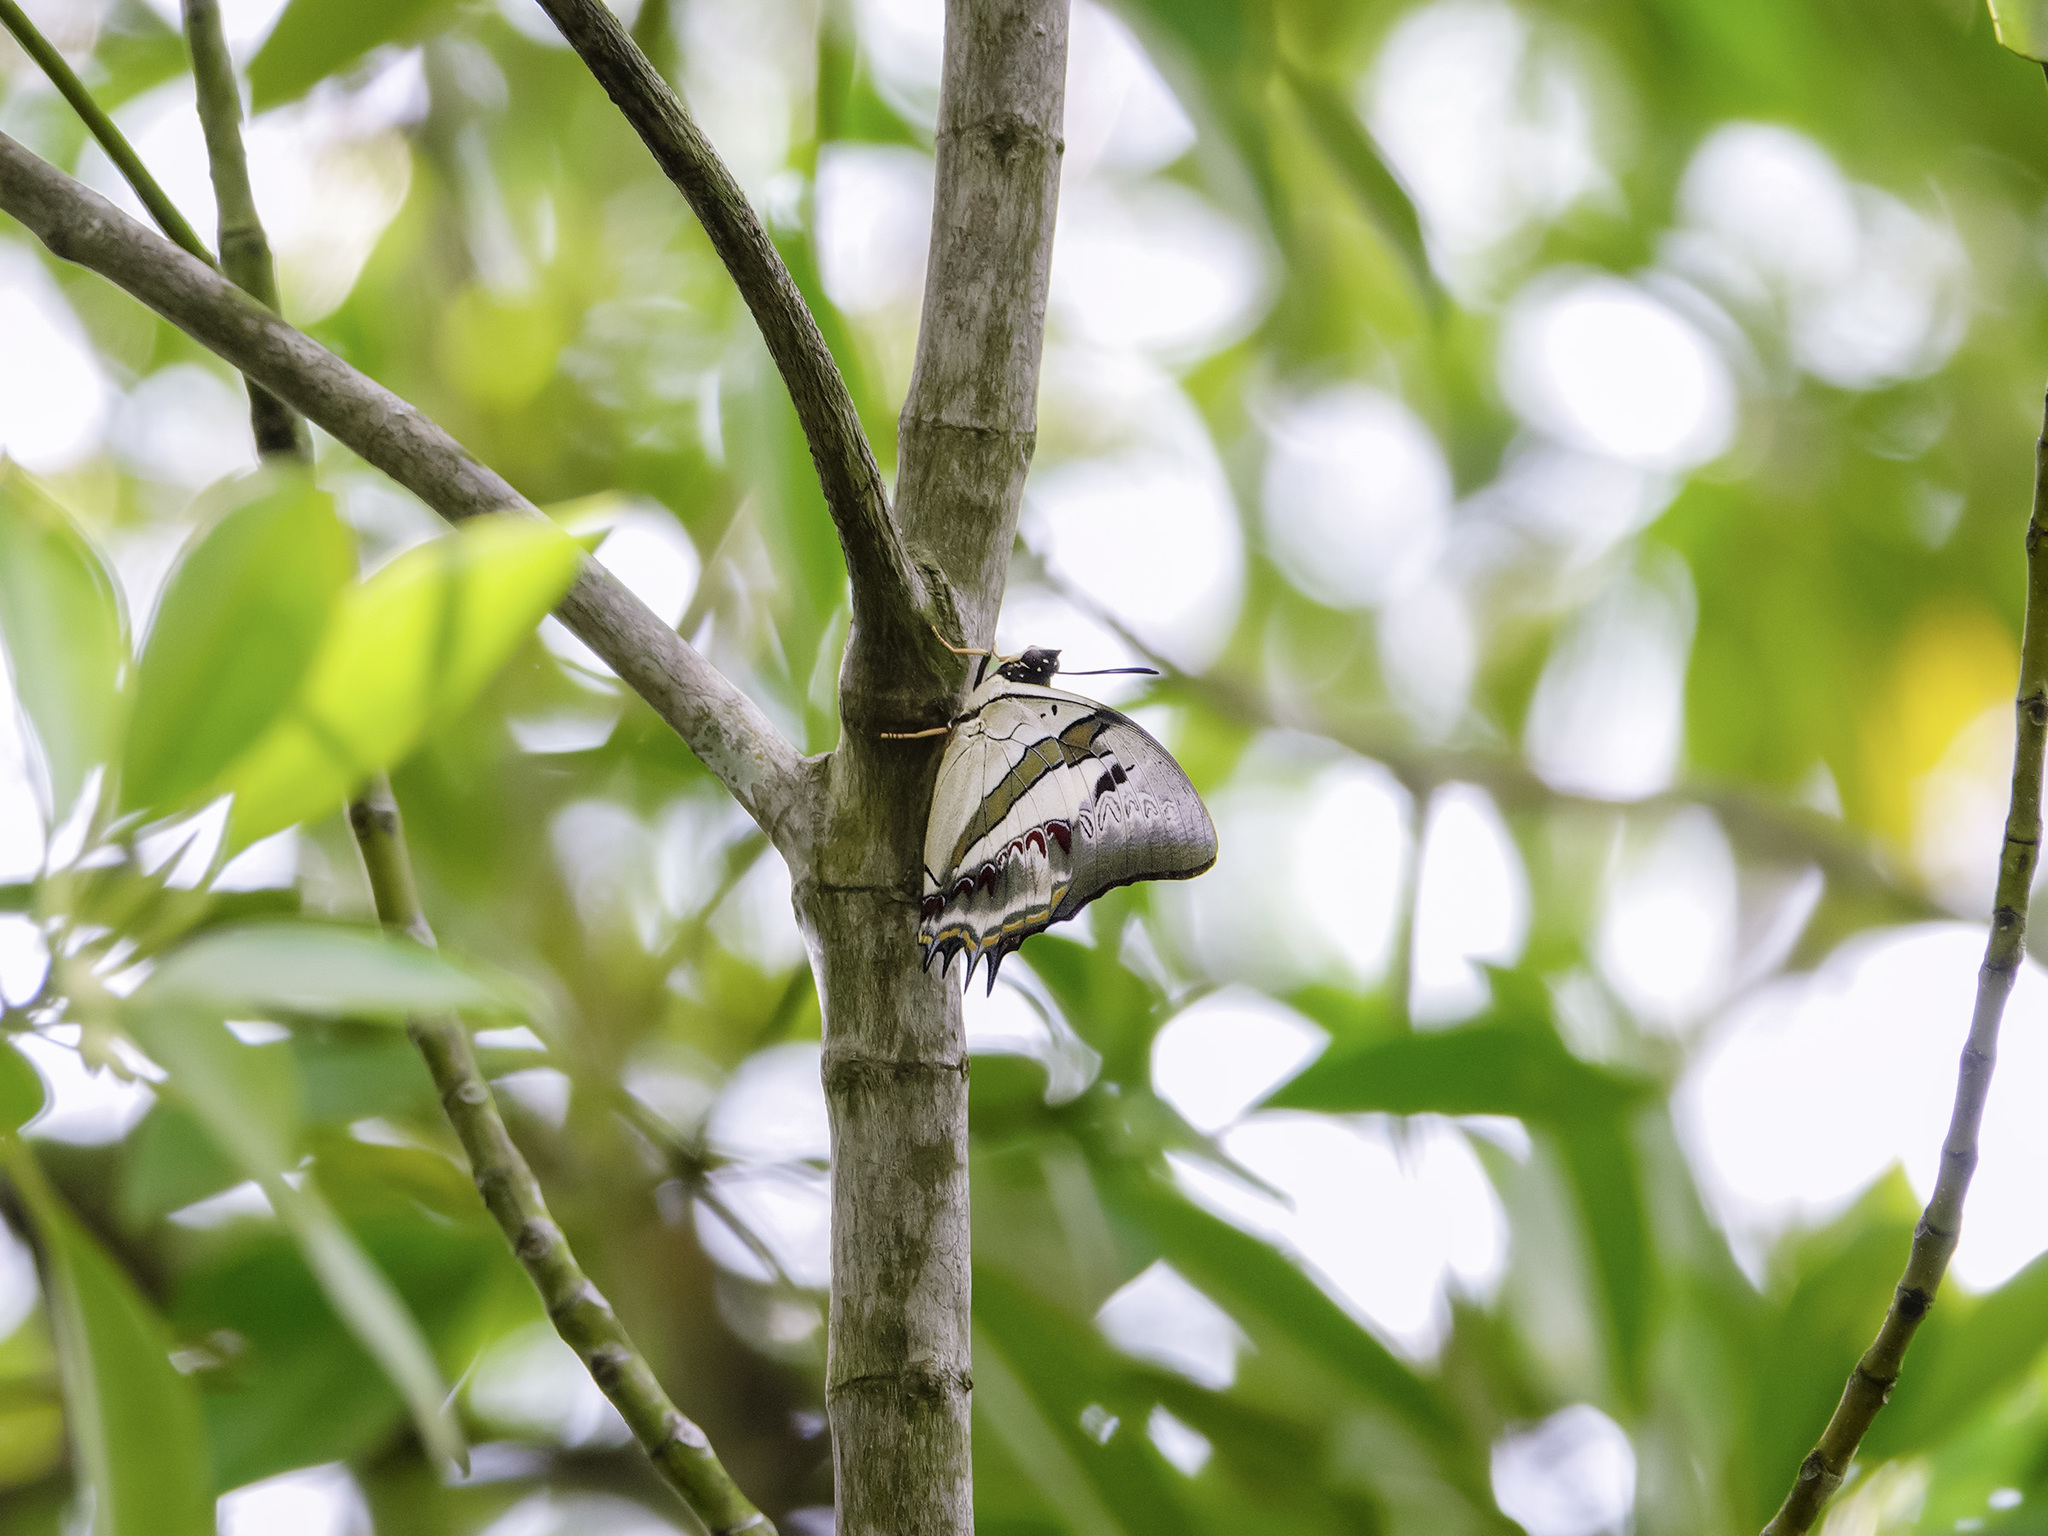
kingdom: Animalia
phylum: Arthropoda
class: Insecta
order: Lepidoptera
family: Nymphalidae
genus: Polyura
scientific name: Polyura schreiber
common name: Blue nawab
